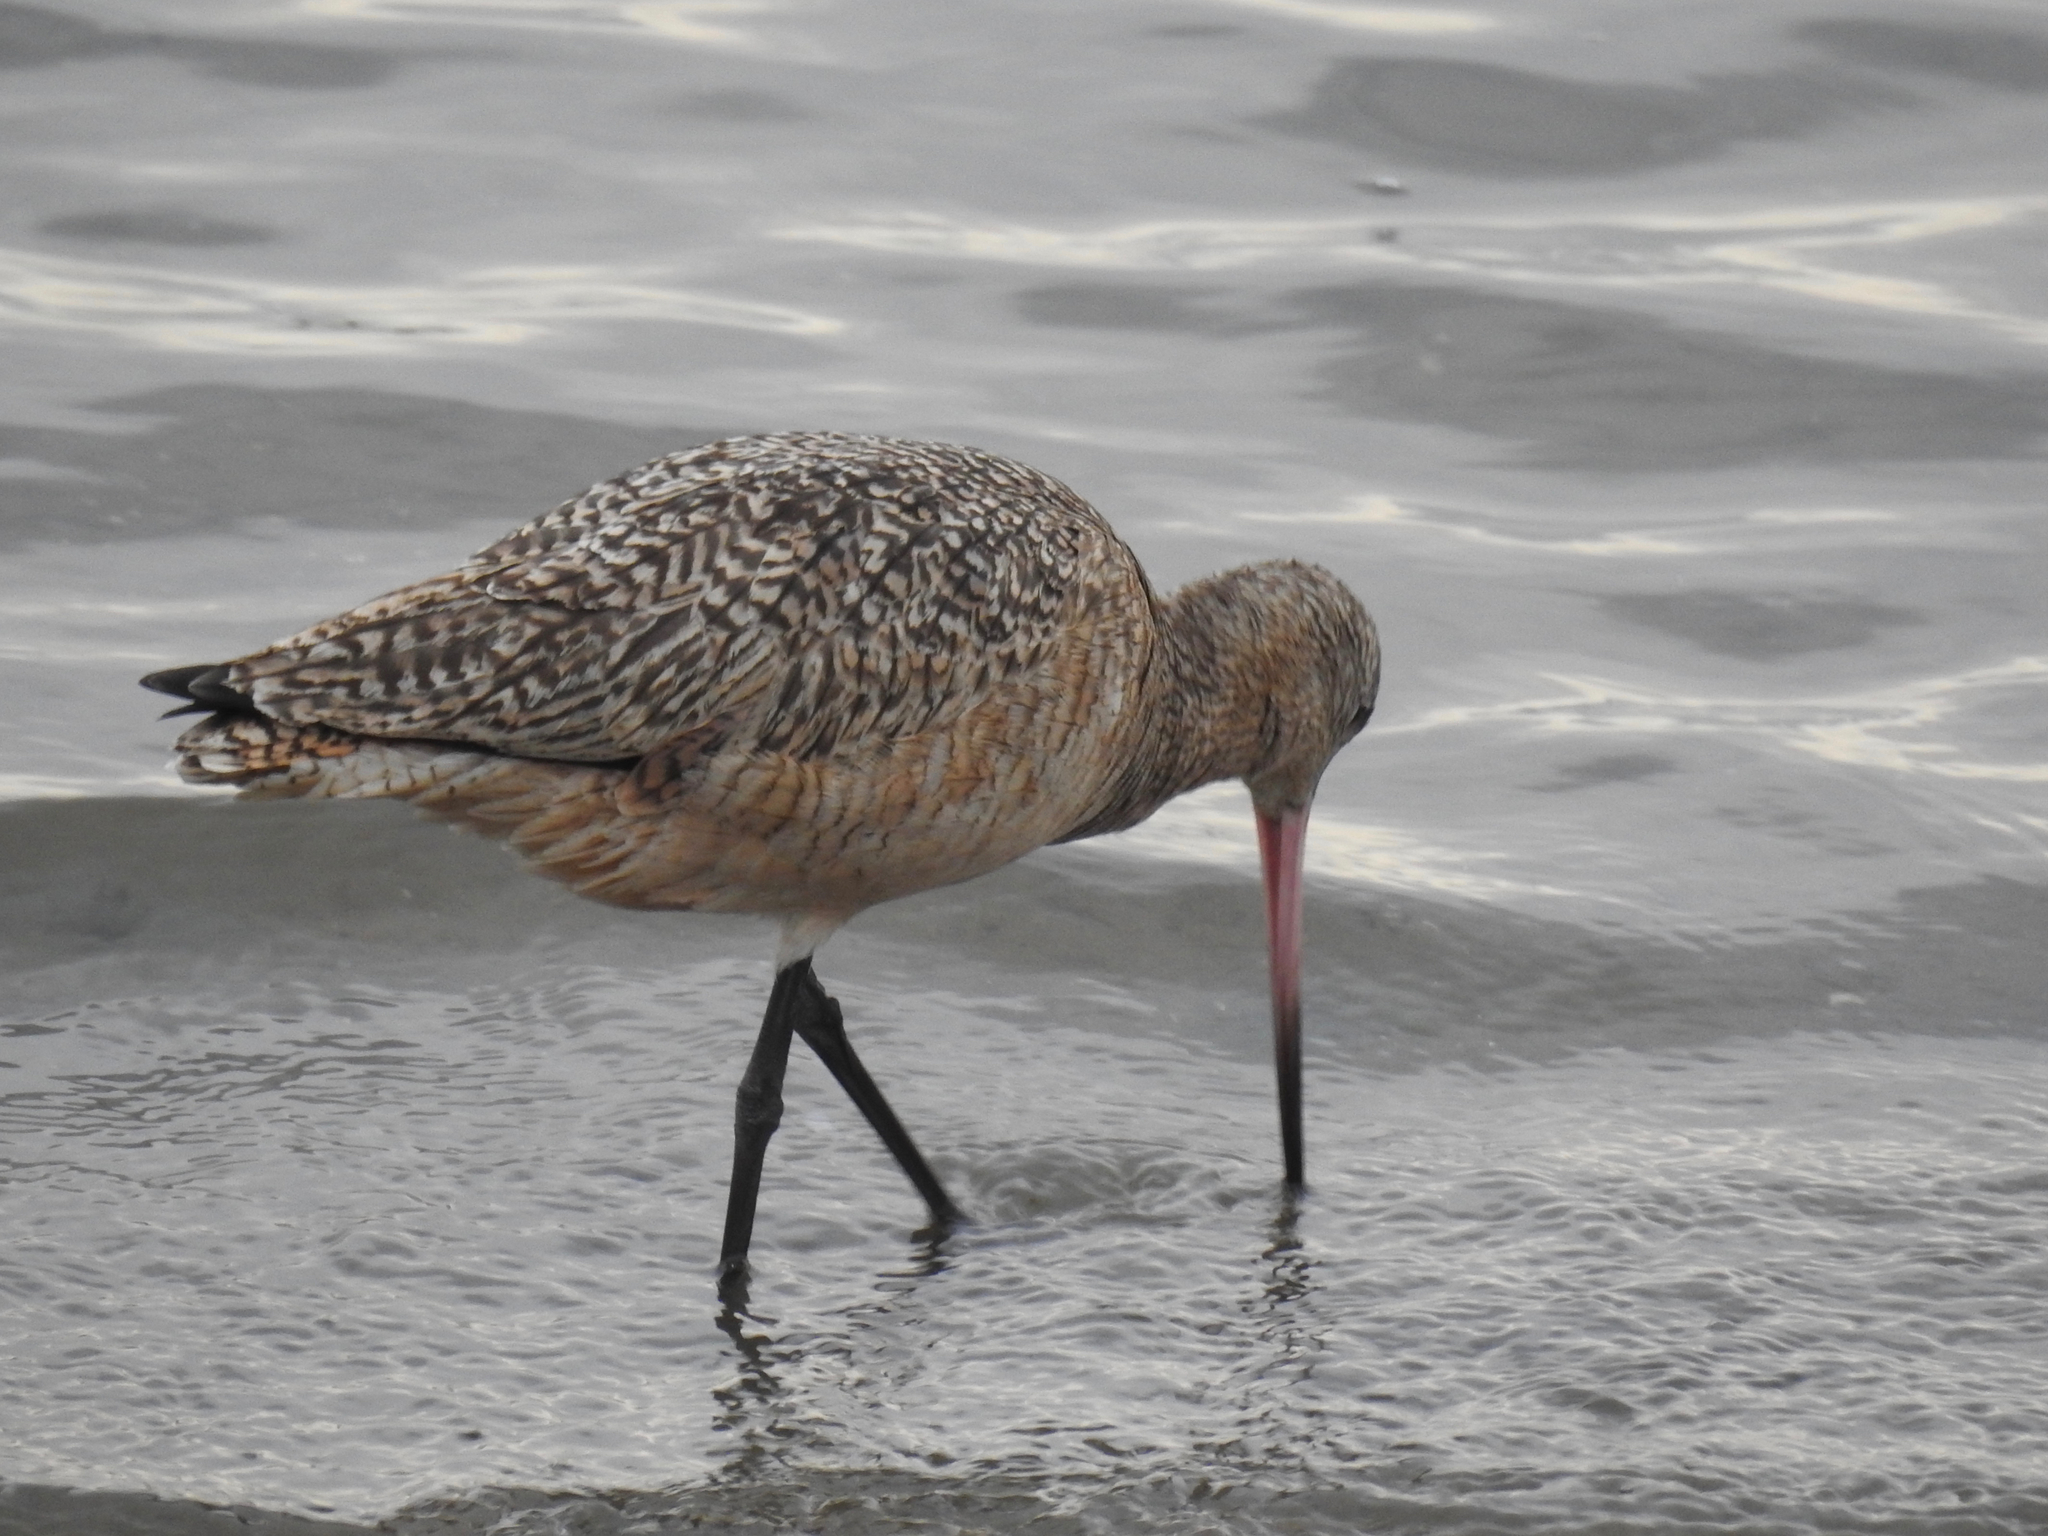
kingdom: Animalia
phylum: Chordata
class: Aves
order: Charadriiformes
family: Scolopacidae
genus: Limosa
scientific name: Limosa fedoa
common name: Marbled godwit
